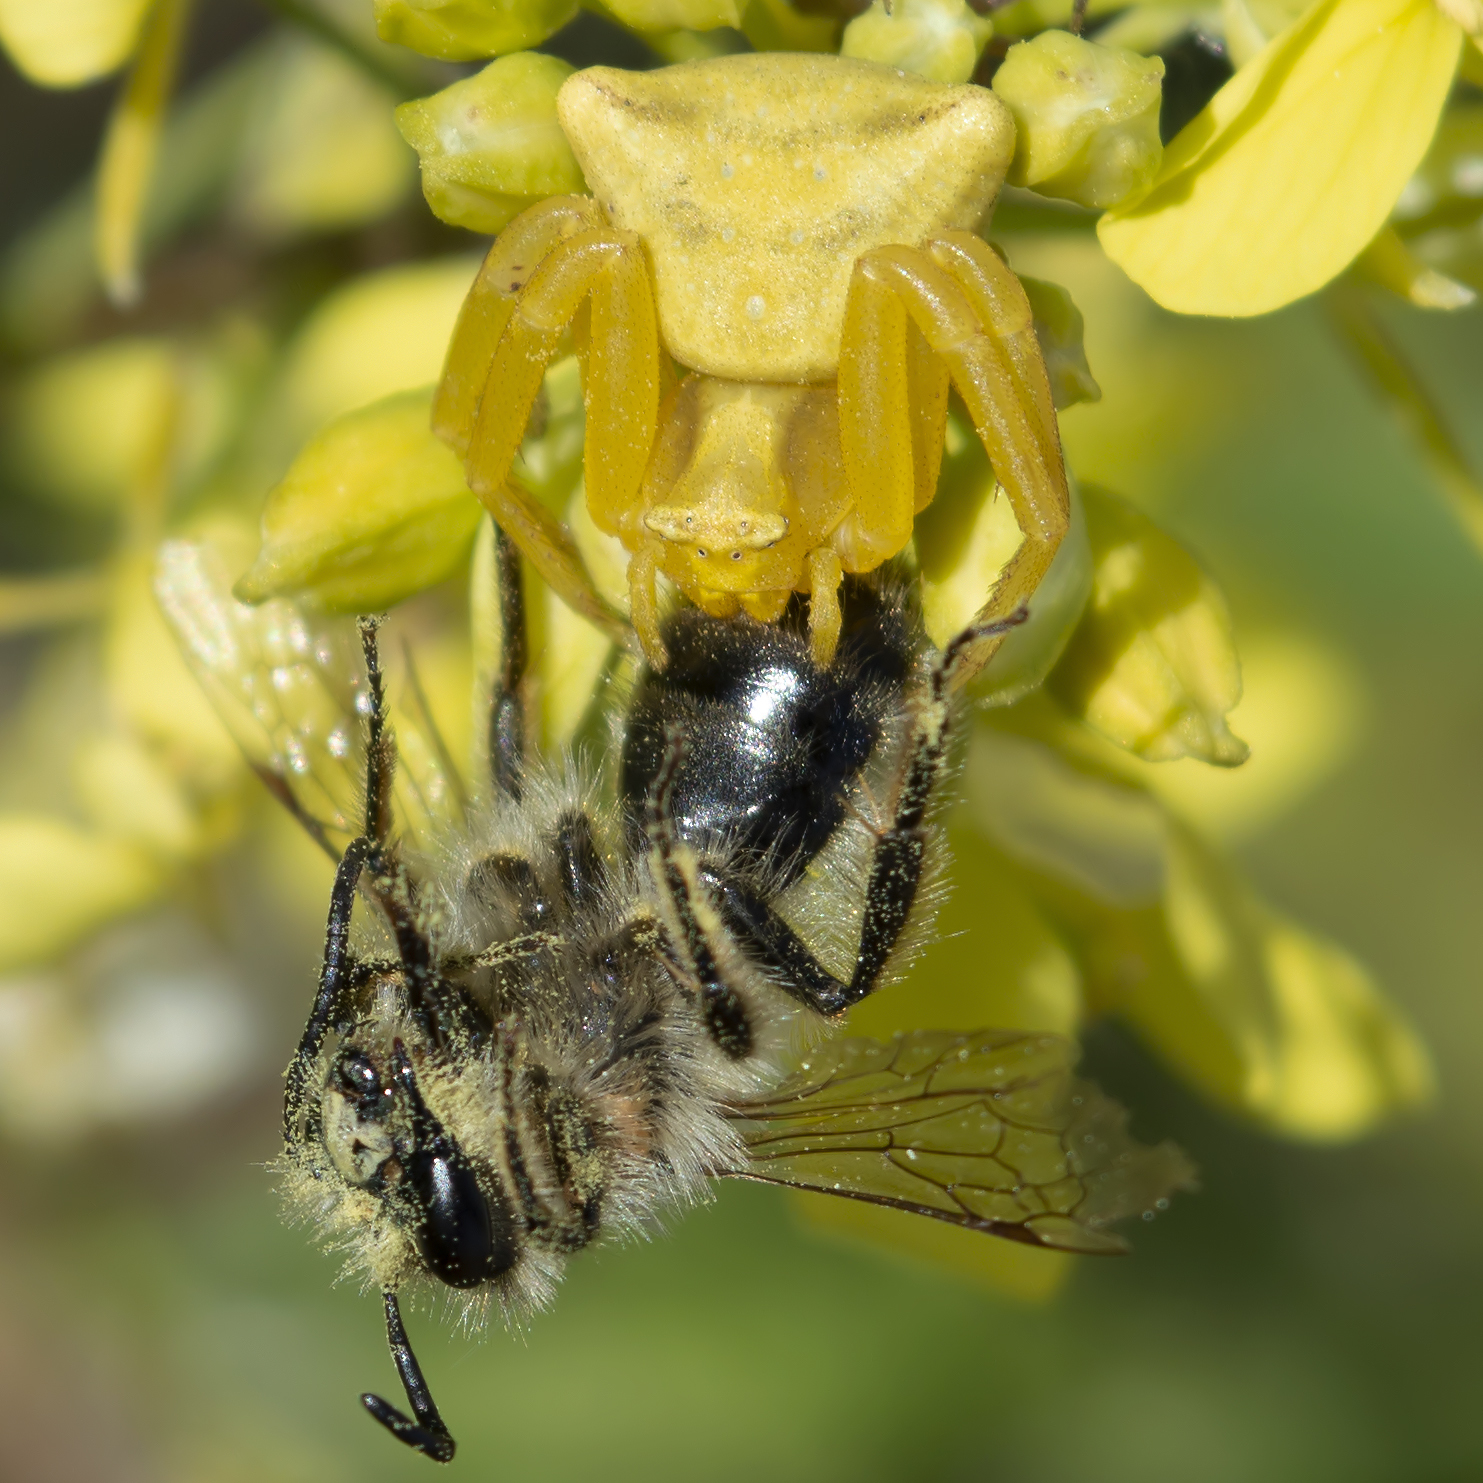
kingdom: Animalia
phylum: Arthropoda
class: Arachnida
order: Araneae
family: Thomisidae
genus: Thomisus
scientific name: Thomisus onustus
